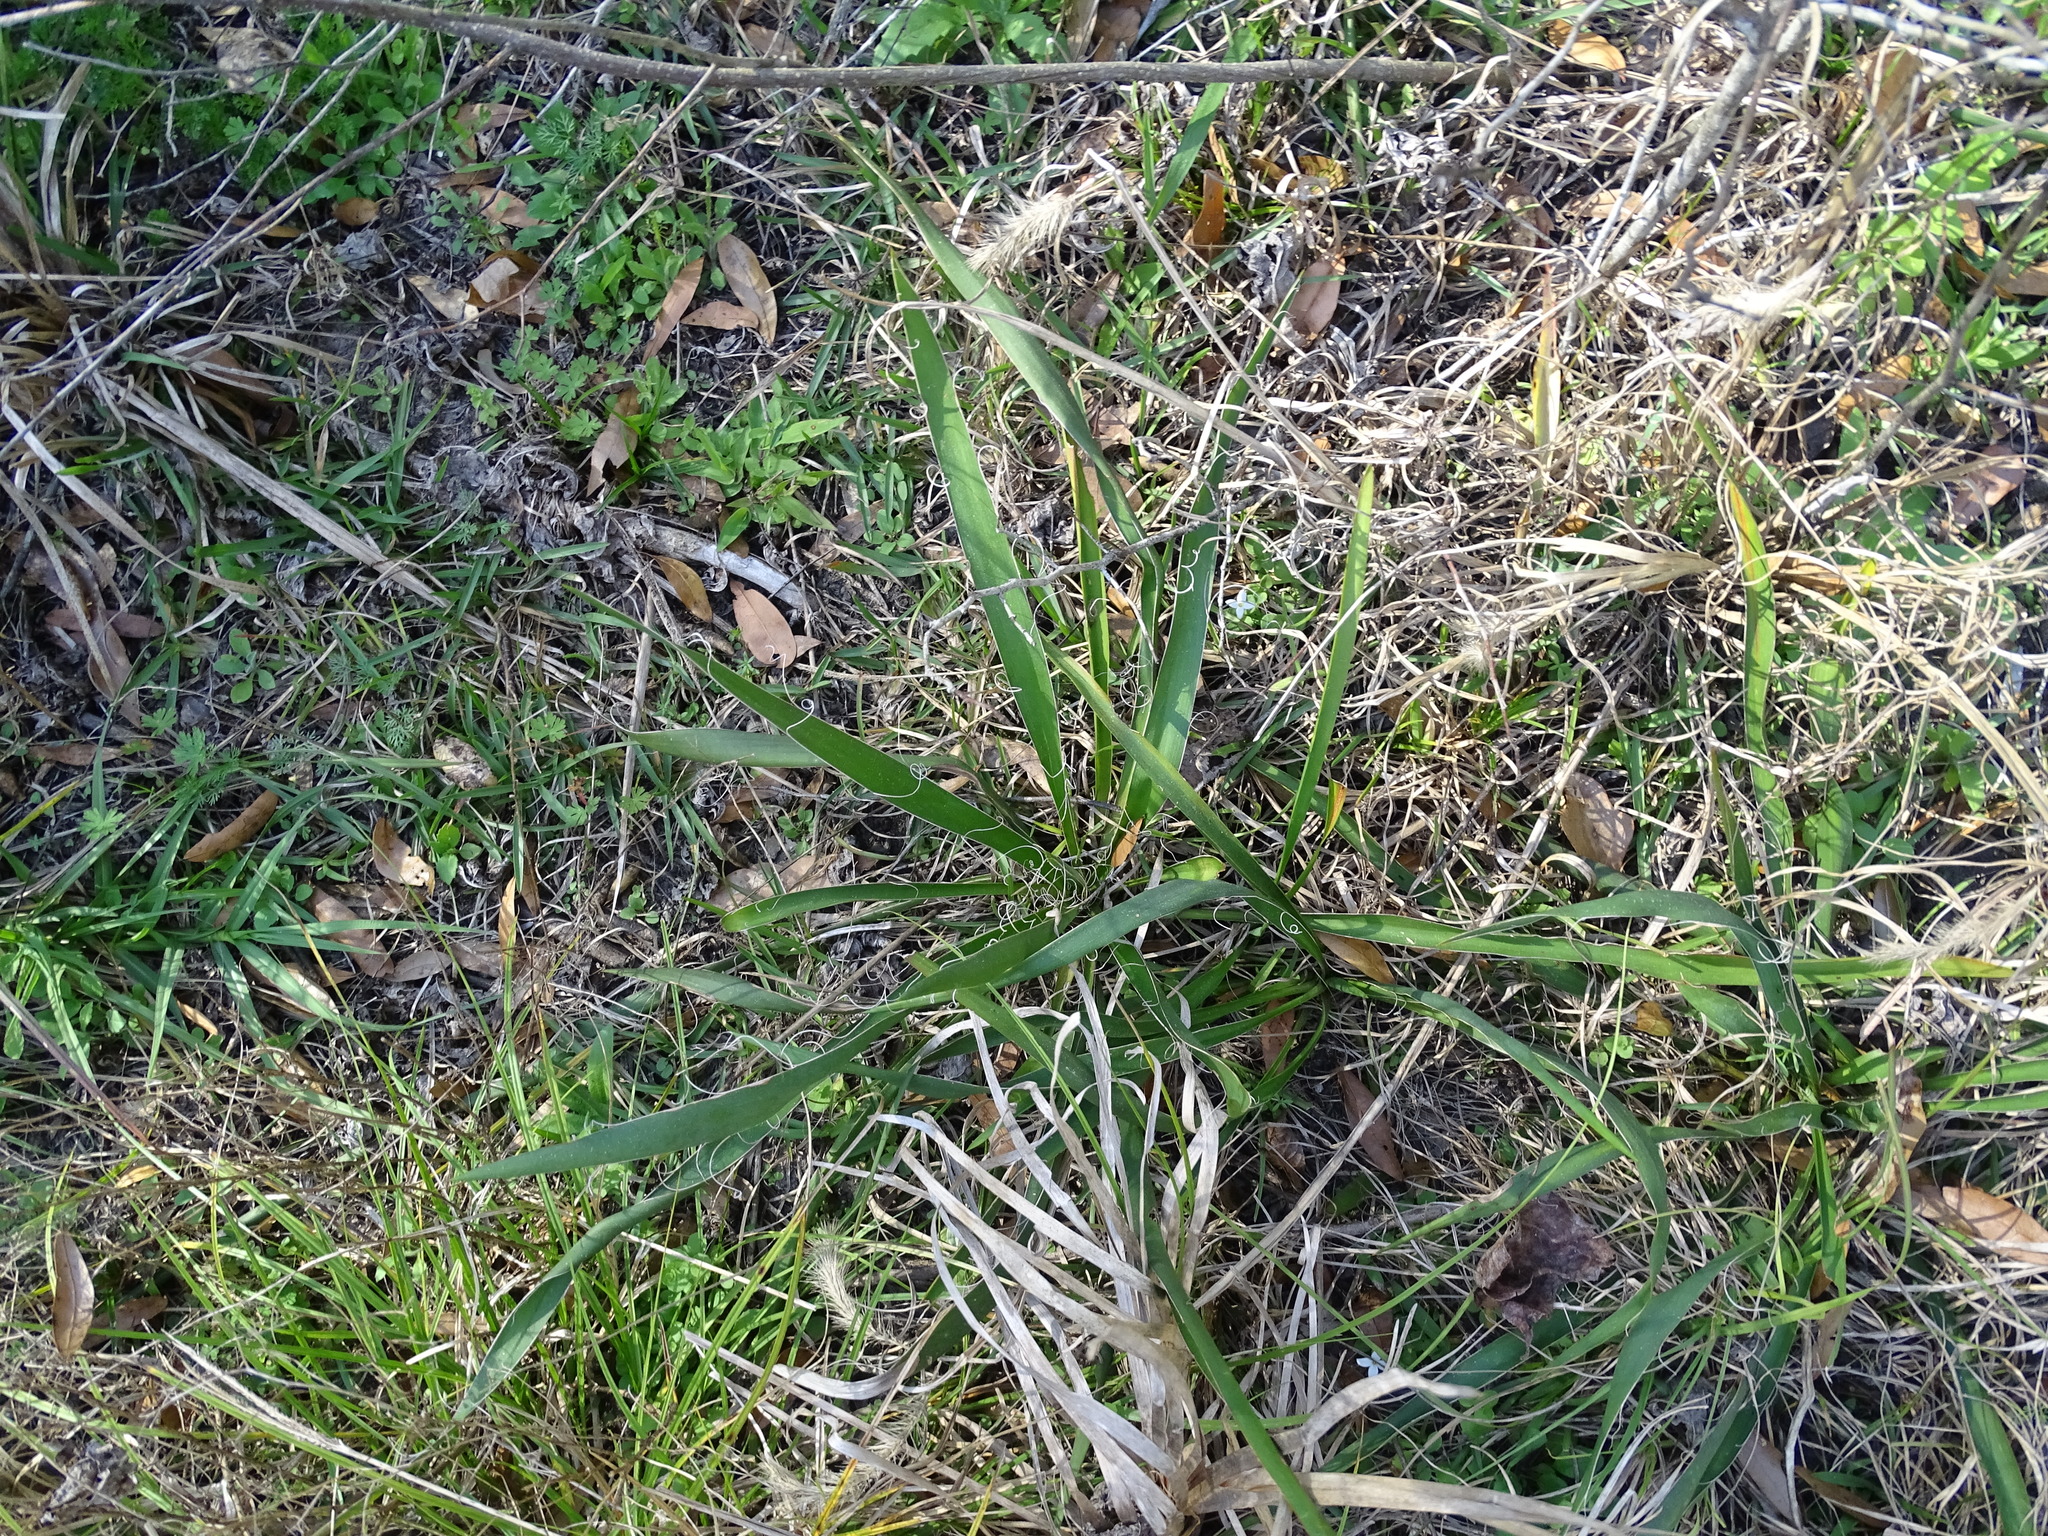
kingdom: Plantae
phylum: Tracheophyta
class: Liliopsida
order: Asparagales
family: Asparagaceae
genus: Yucca
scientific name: Yucca filamentosa
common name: Adam's-needle
